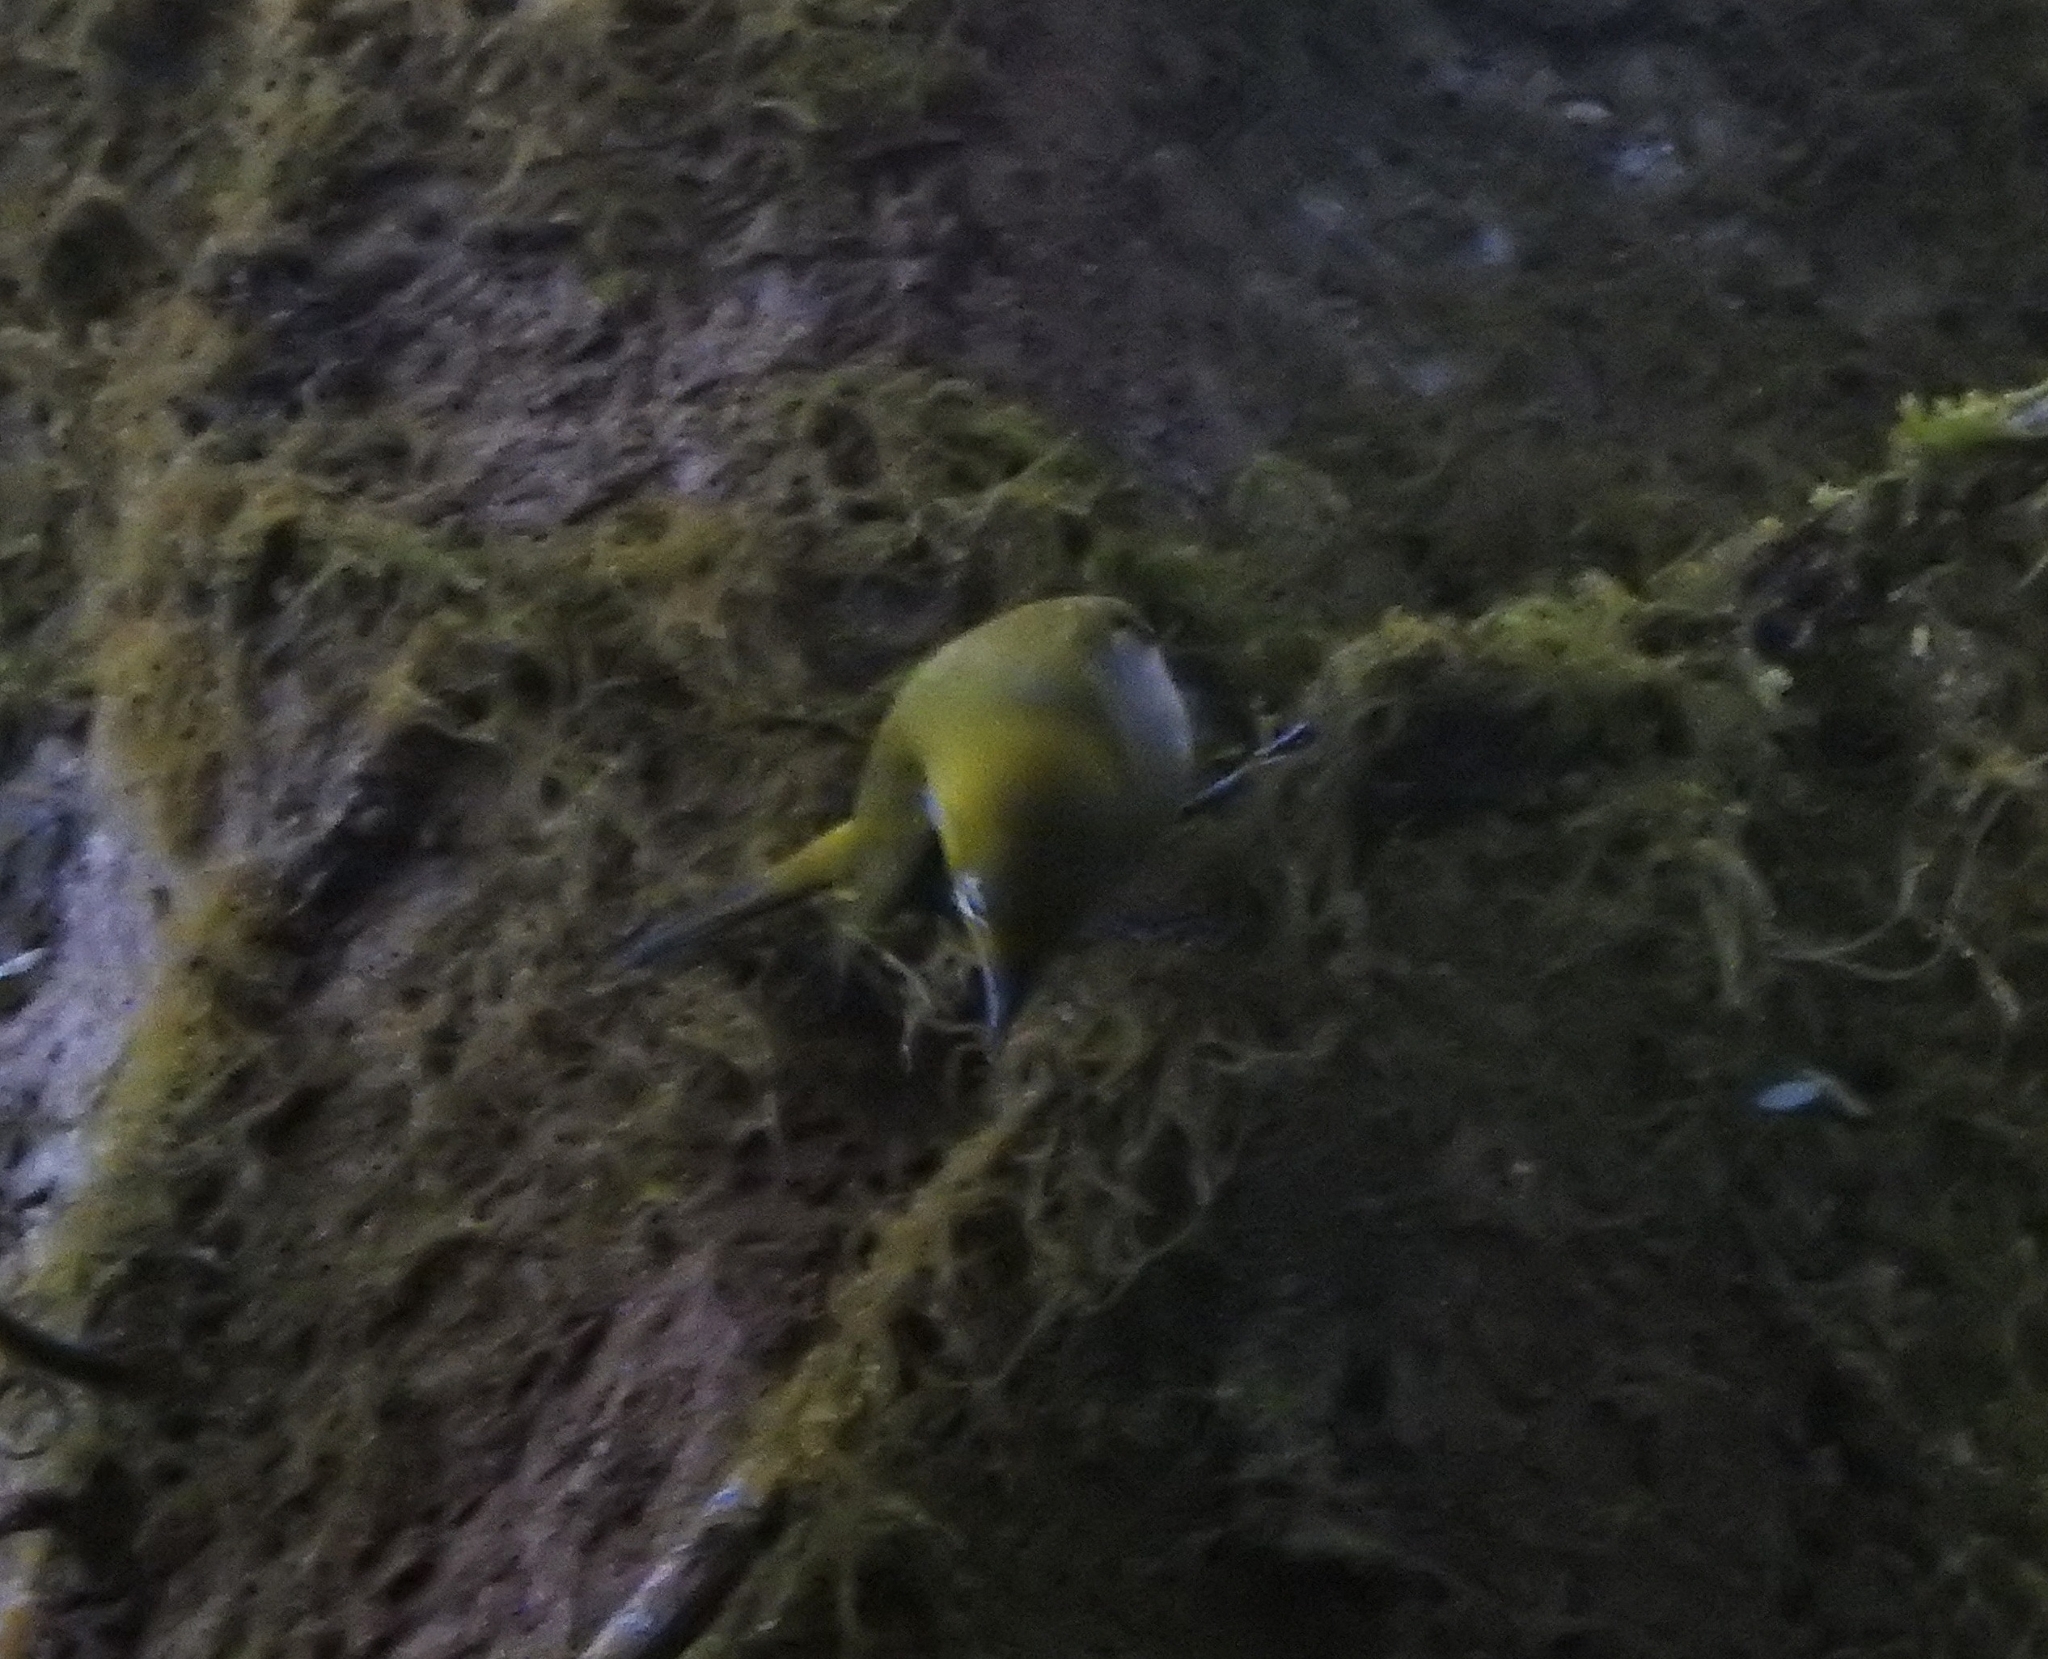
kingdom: Animalia
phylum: Chordata
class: Aves
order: Passeriformes
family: Zosteropidae
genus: Zosterops
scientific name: Zosterops palpebrosus
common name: Oriental white-eye
